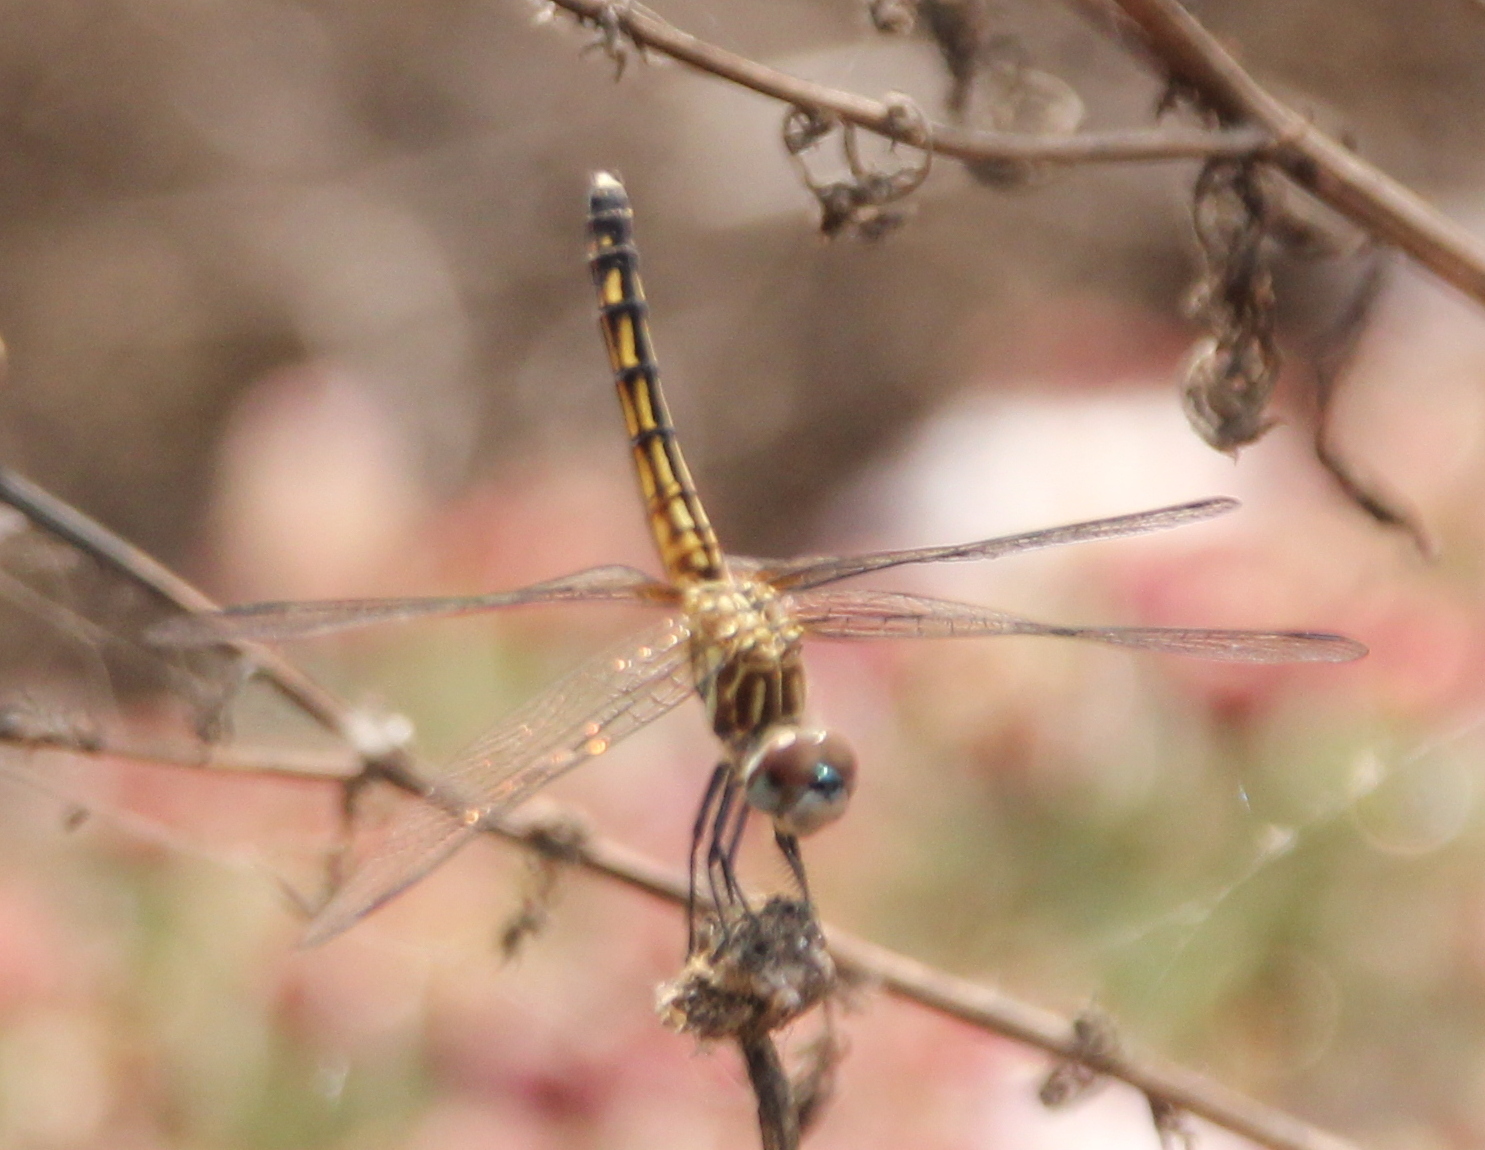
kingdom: Animalia
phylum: Arthropoda
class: Insecta
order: Odonata
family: Libellulidae
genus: Pachydiplax
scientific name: Pachydiplax longipennis
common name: Blue dasher
